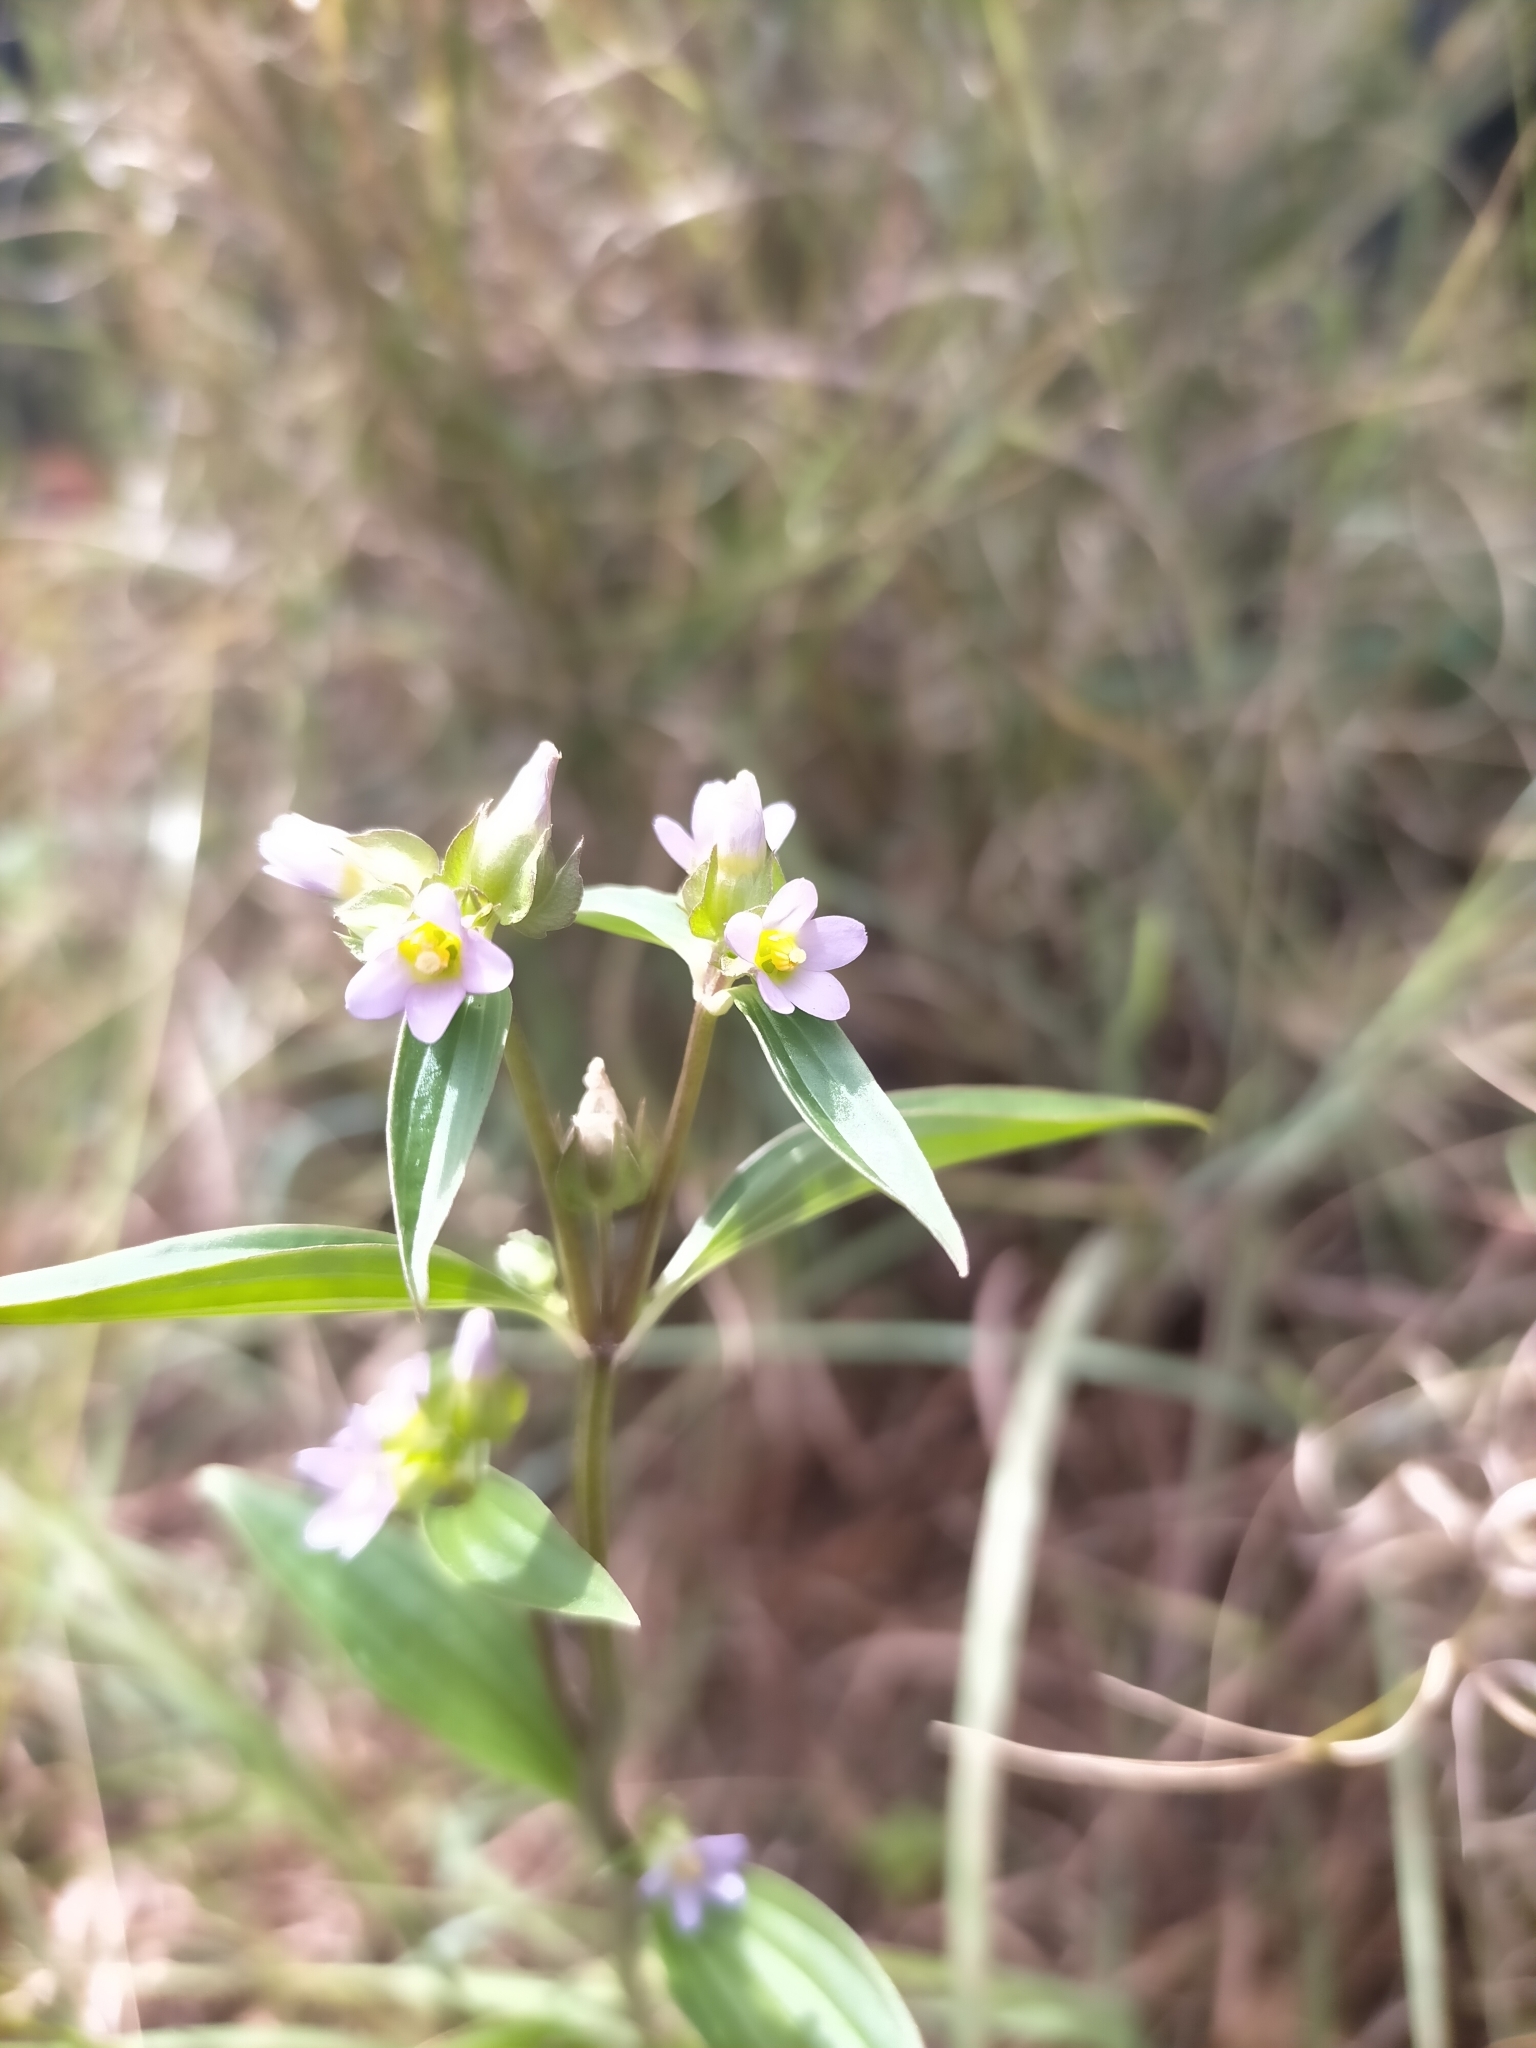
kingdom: Plantae
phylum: Tracheophyta
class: Magnoliopsida
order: Gentianales
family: Gentianaceae
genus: Exacum
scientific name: Exacum quinquenervium
